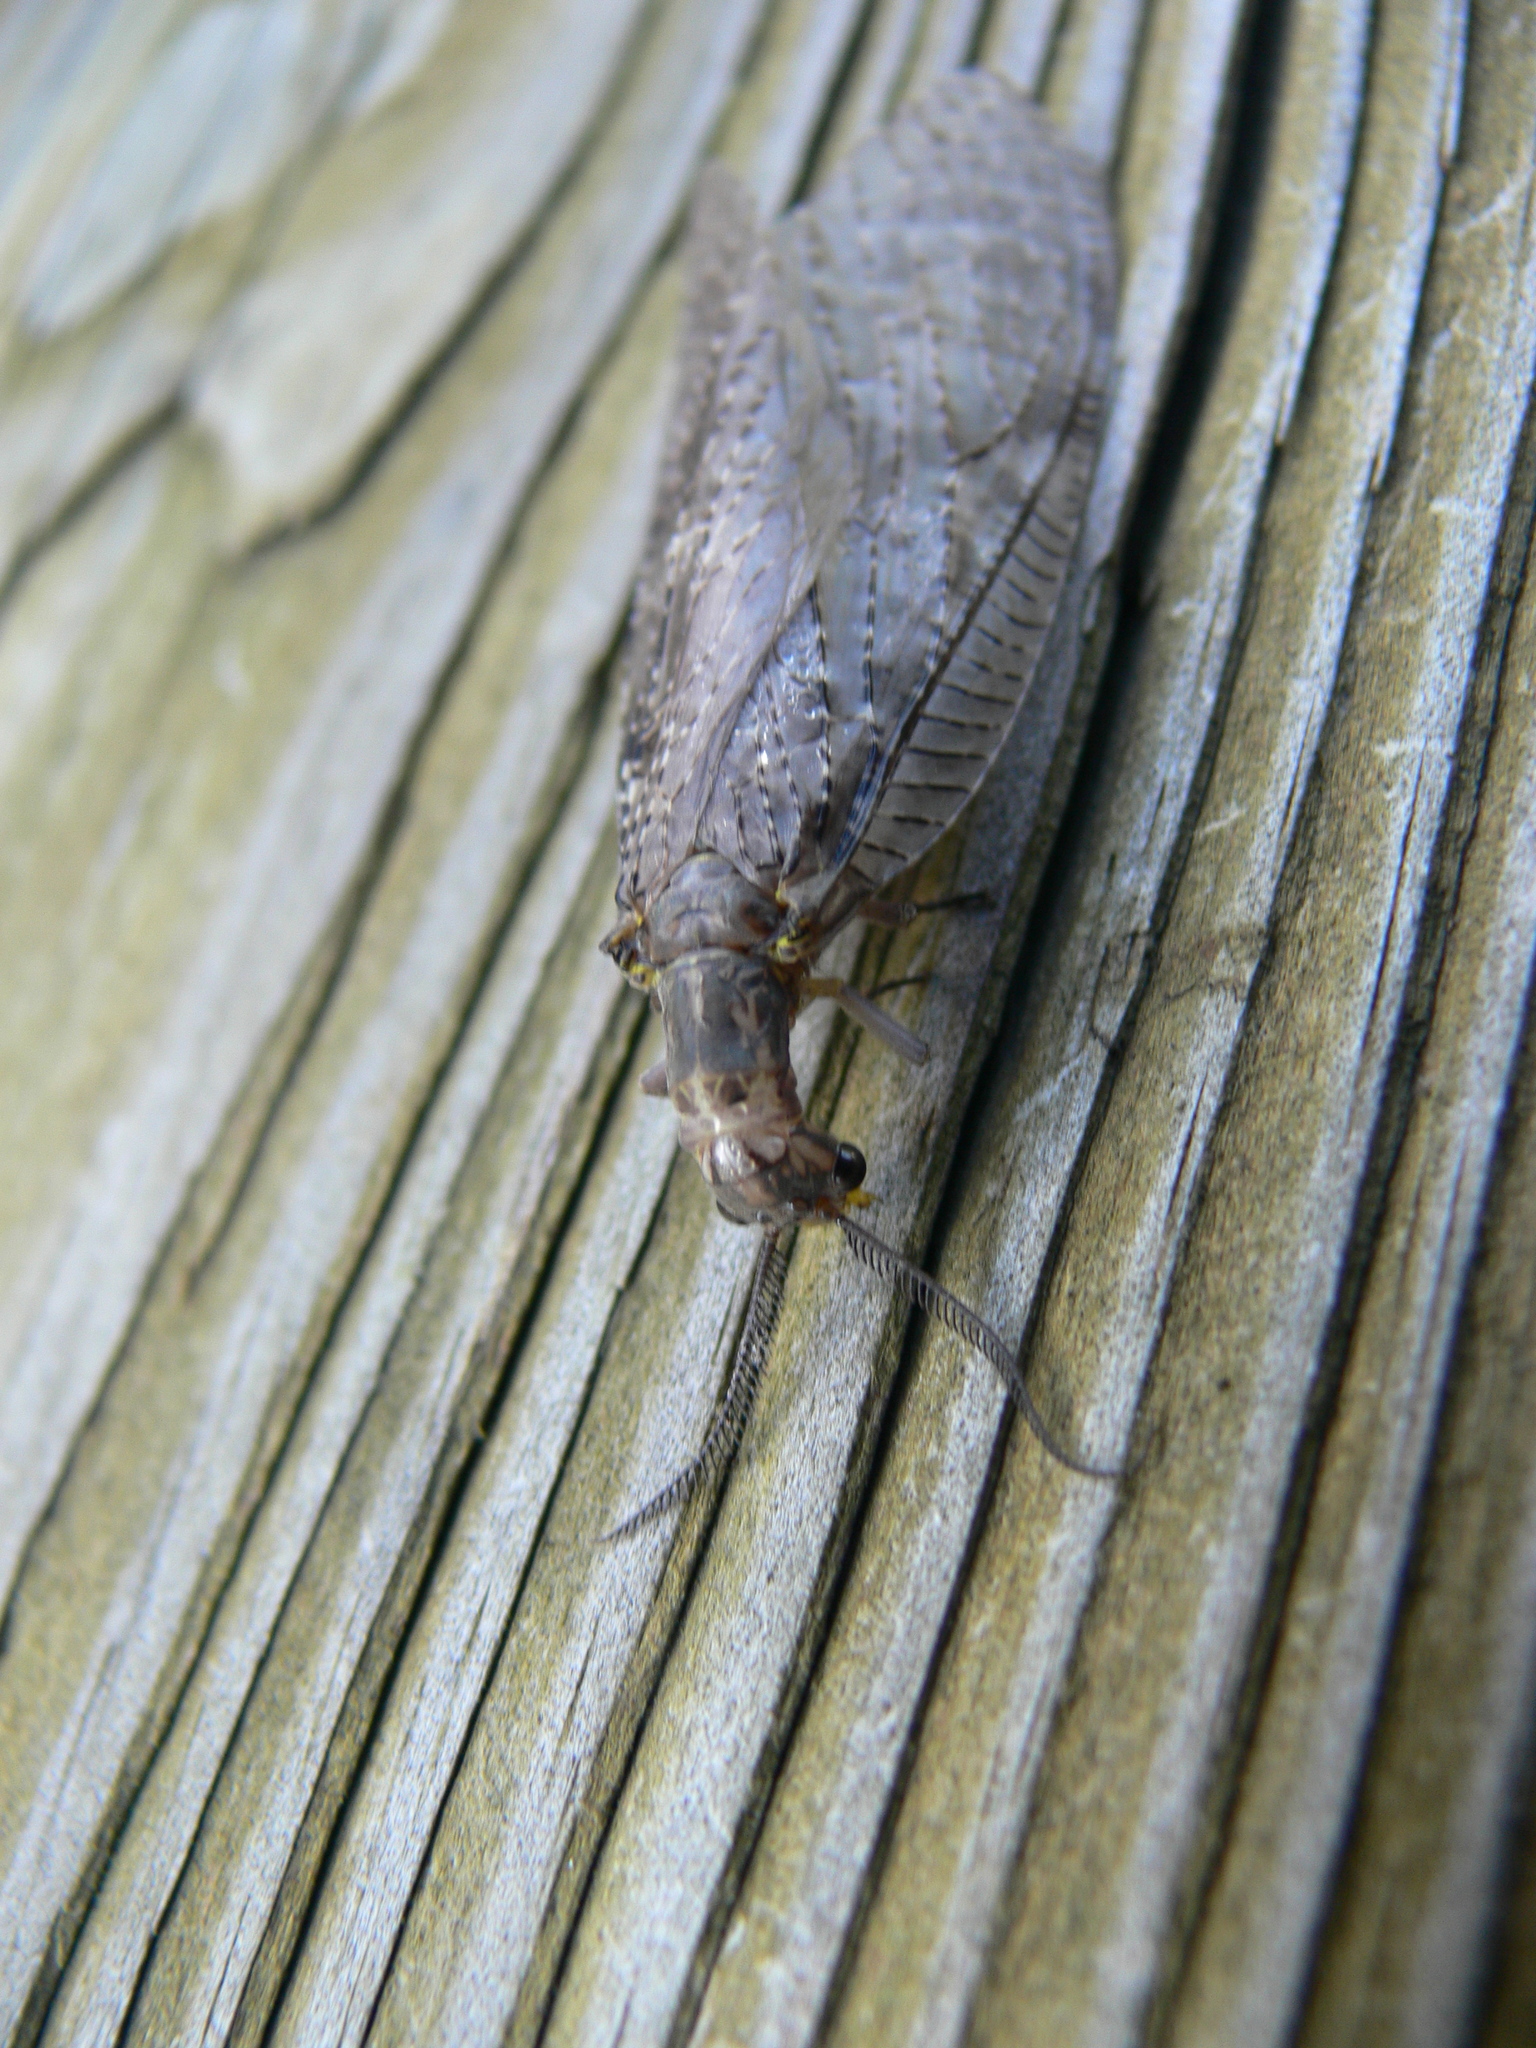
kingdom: Animalia
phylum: Arthropoda
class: Insecta
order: Megaloptera
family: Corydalidae
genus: Chauliodes
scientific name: Chauliodes pectinicornis
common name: Summer fishfly
